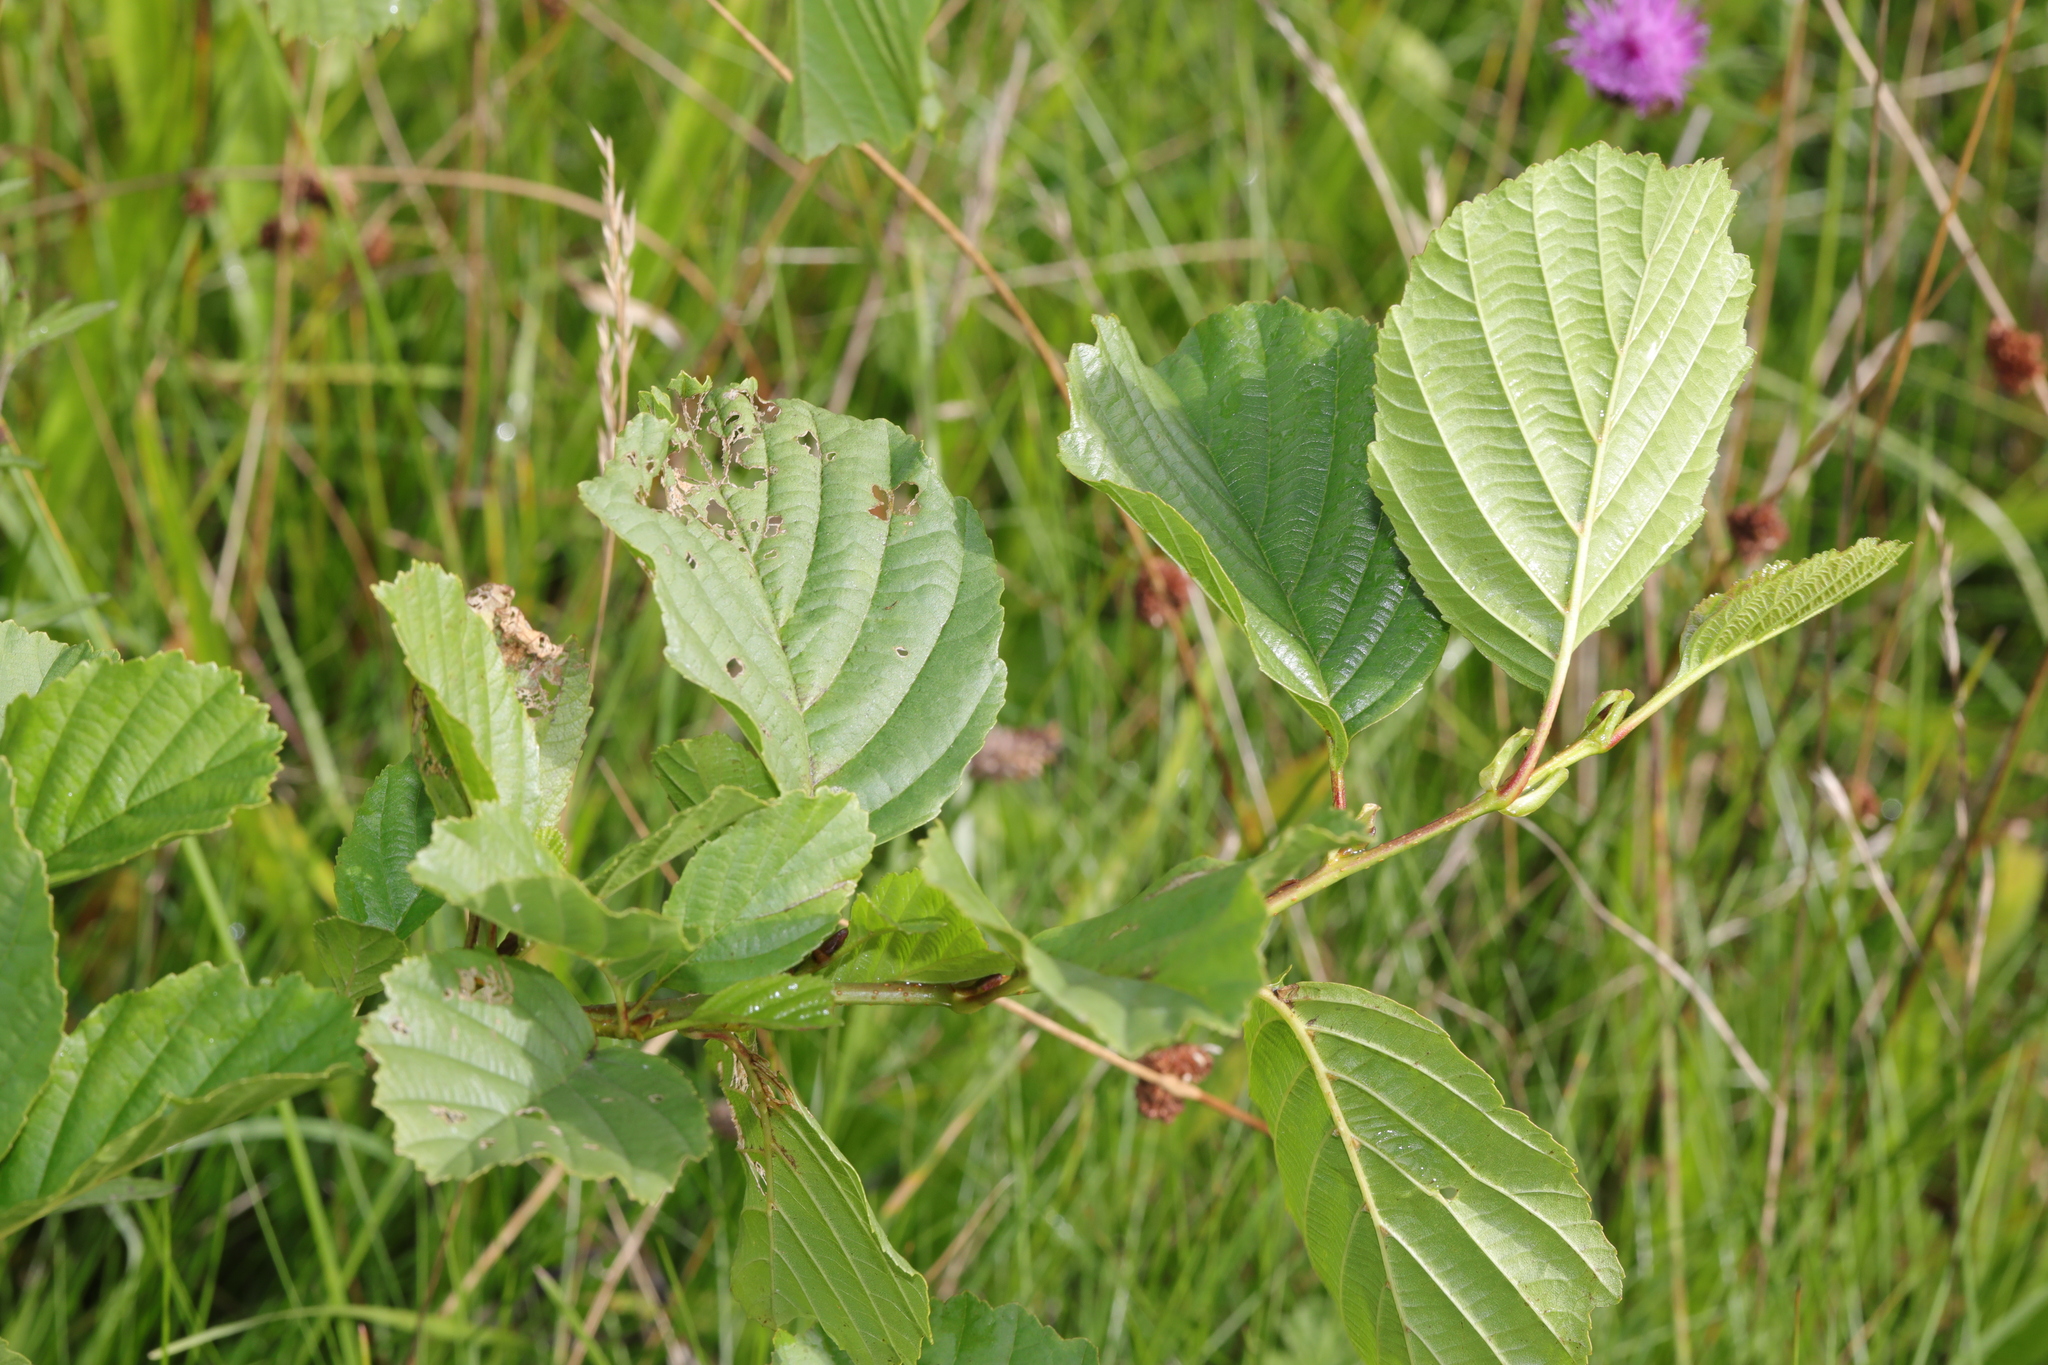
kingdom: Plantae
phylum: Tracheophyta
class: Magnoliopsida
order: Fagales
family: Betulaceae
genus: Alnus
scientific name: Alnus glutinosa
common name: Black alder
